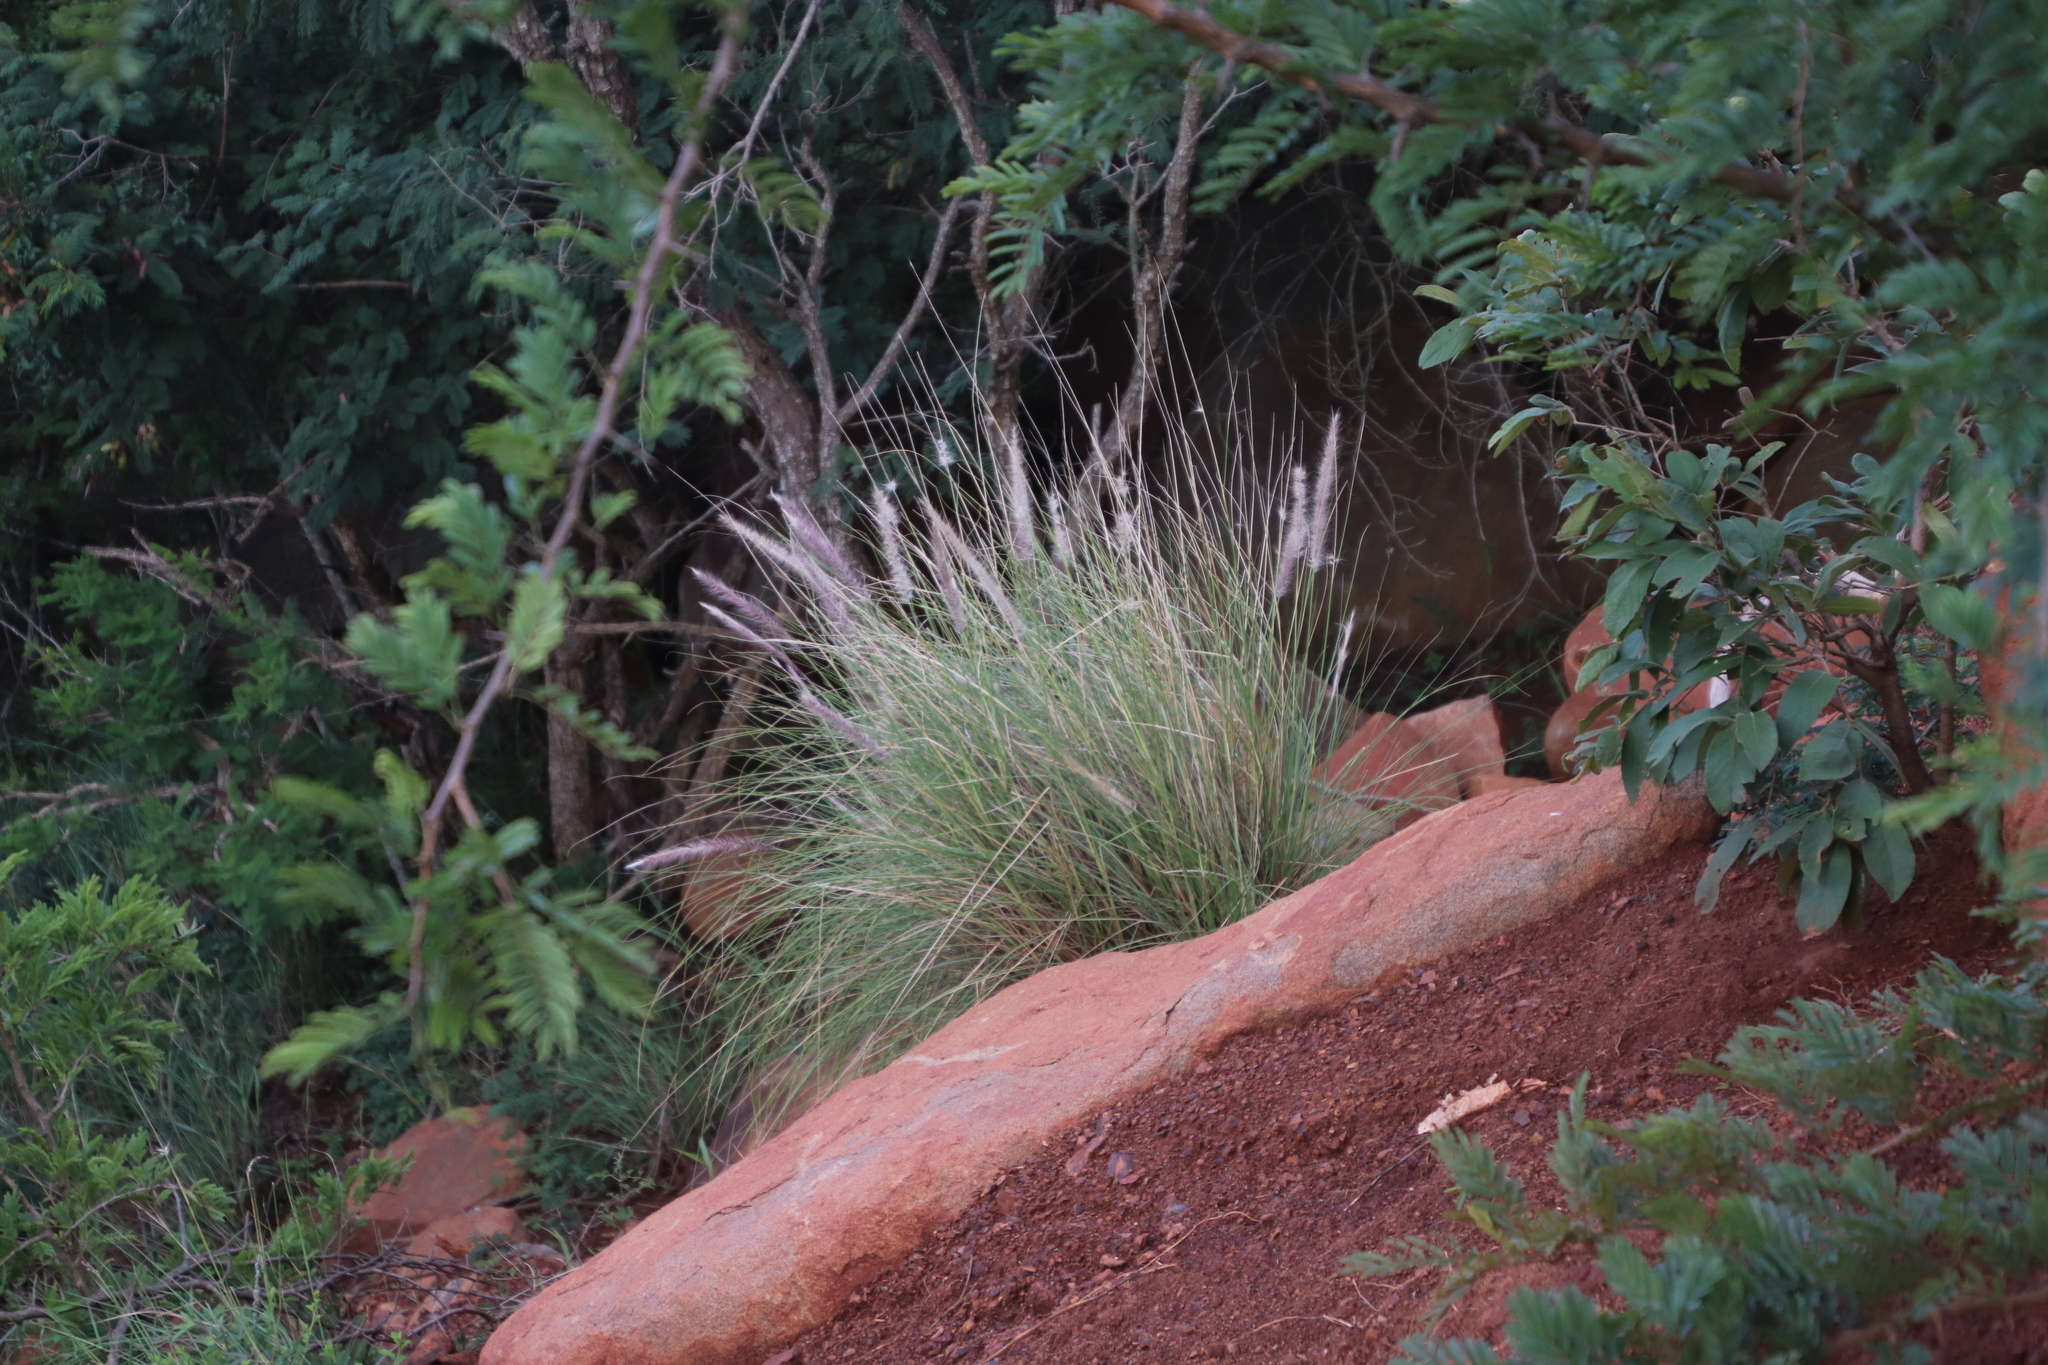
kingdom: Plantae
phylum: Tracheophyta
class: Liliopsida
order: Poales
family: Poaceae
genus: Cenchrus
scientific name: Cenchrus setaceus
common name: Crimson fountaingrass
